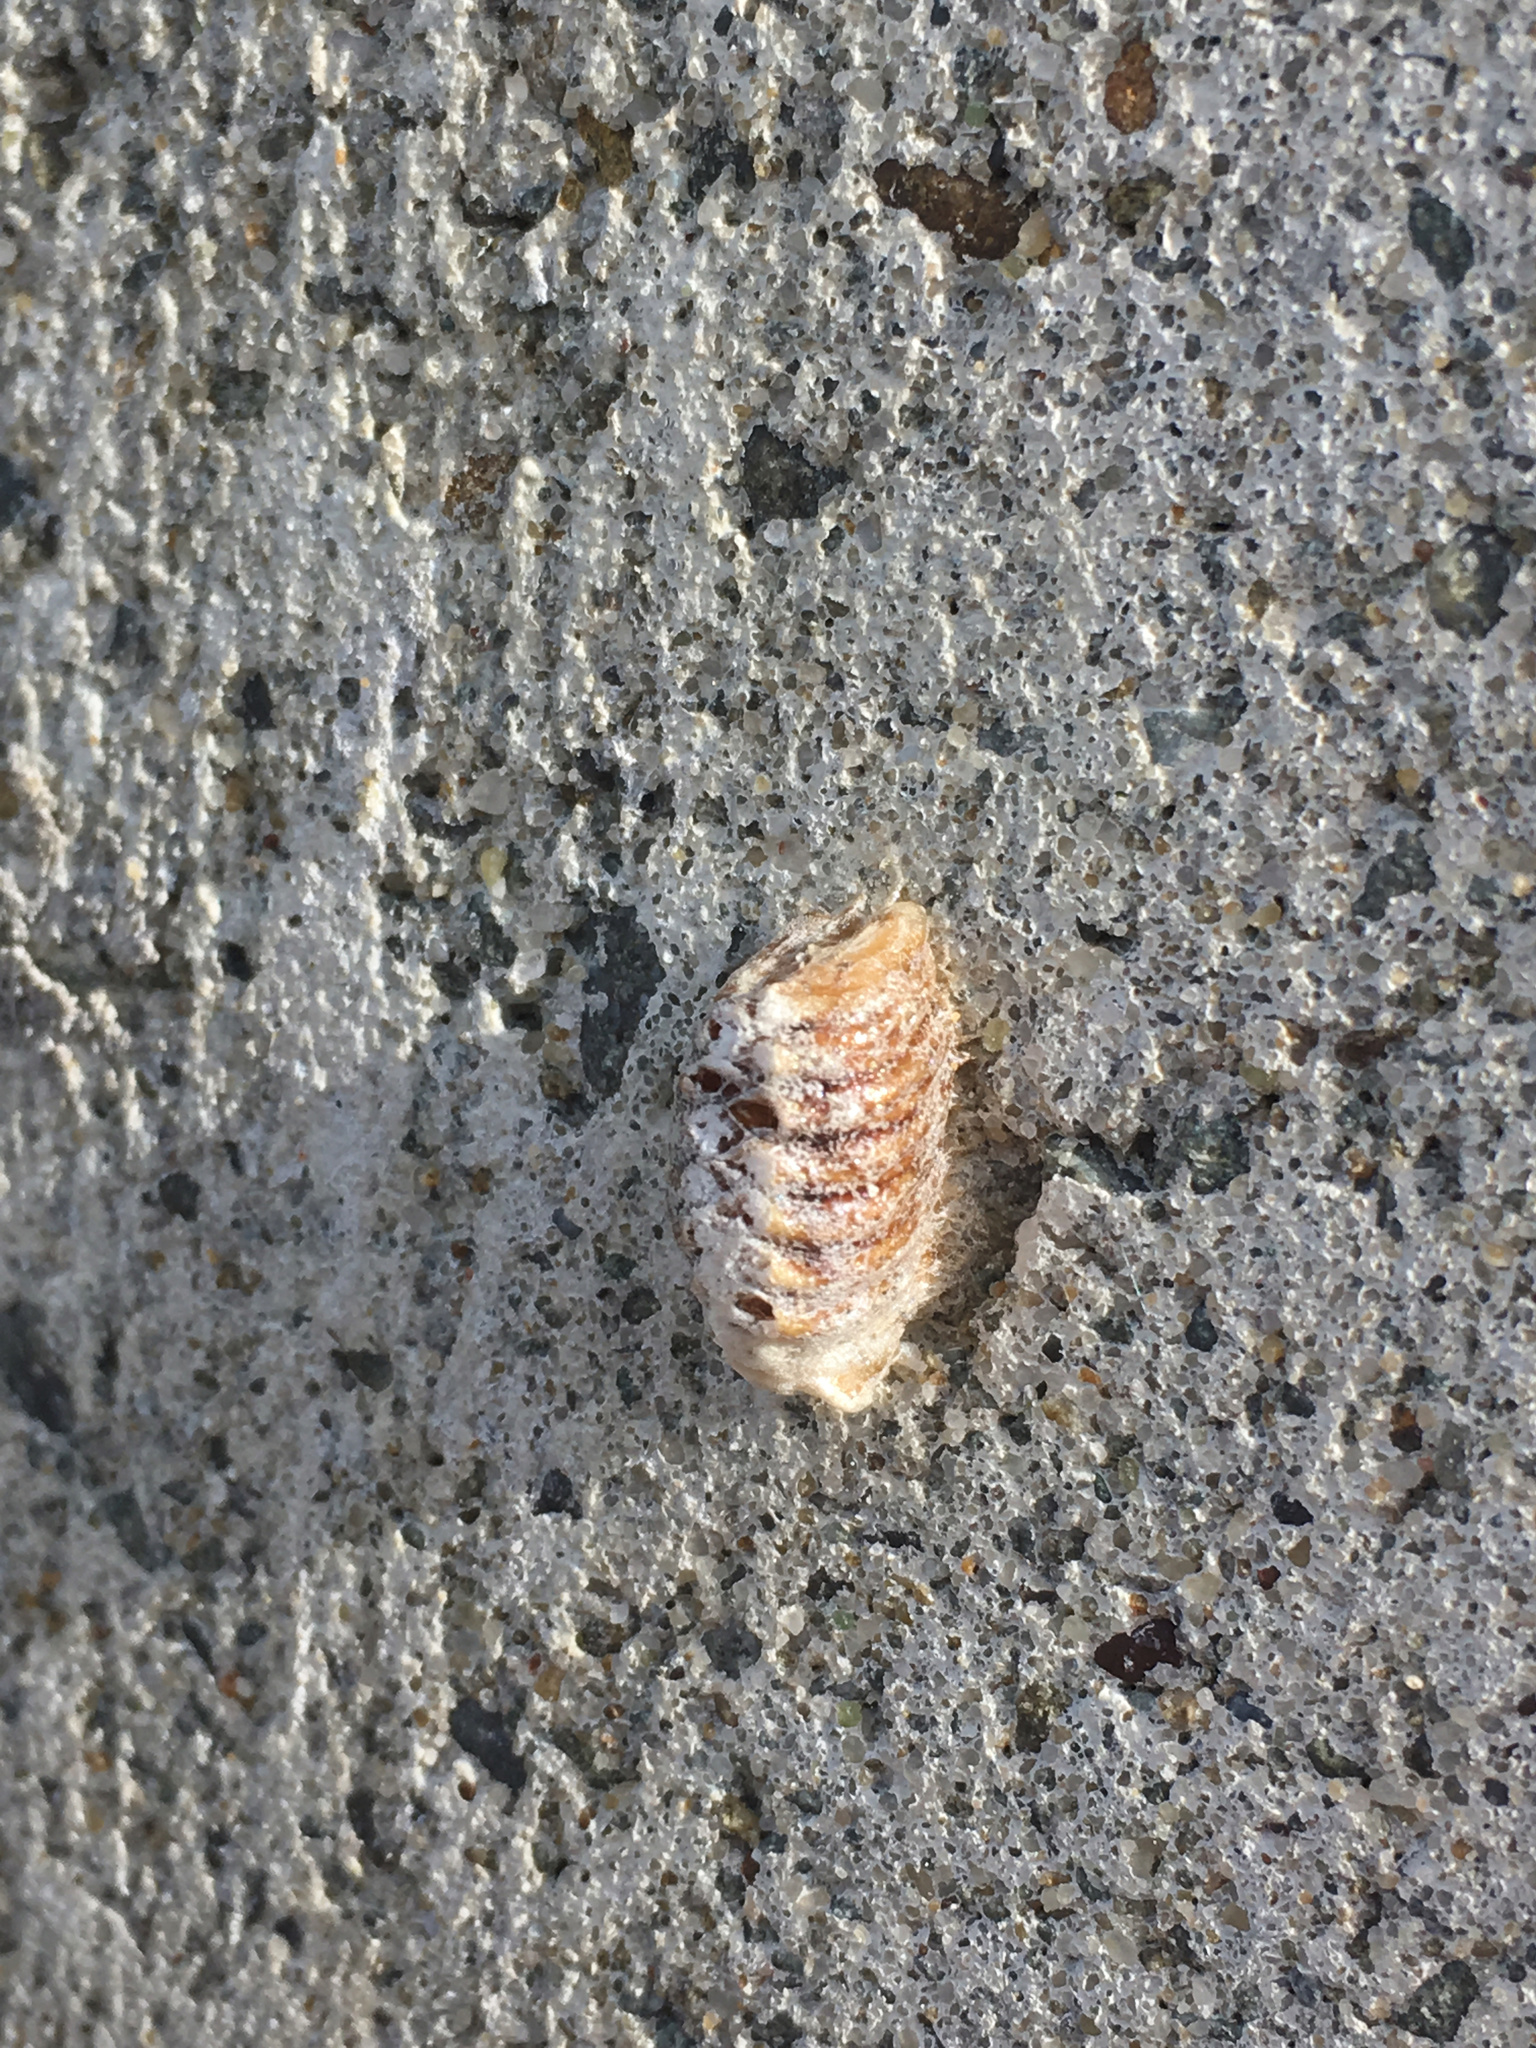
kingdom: Animalia
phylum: Arthropoda
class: Insecta
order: Mantodea
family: Mantidae
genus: Orthodera
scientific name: Orthodera novaezealandiae
